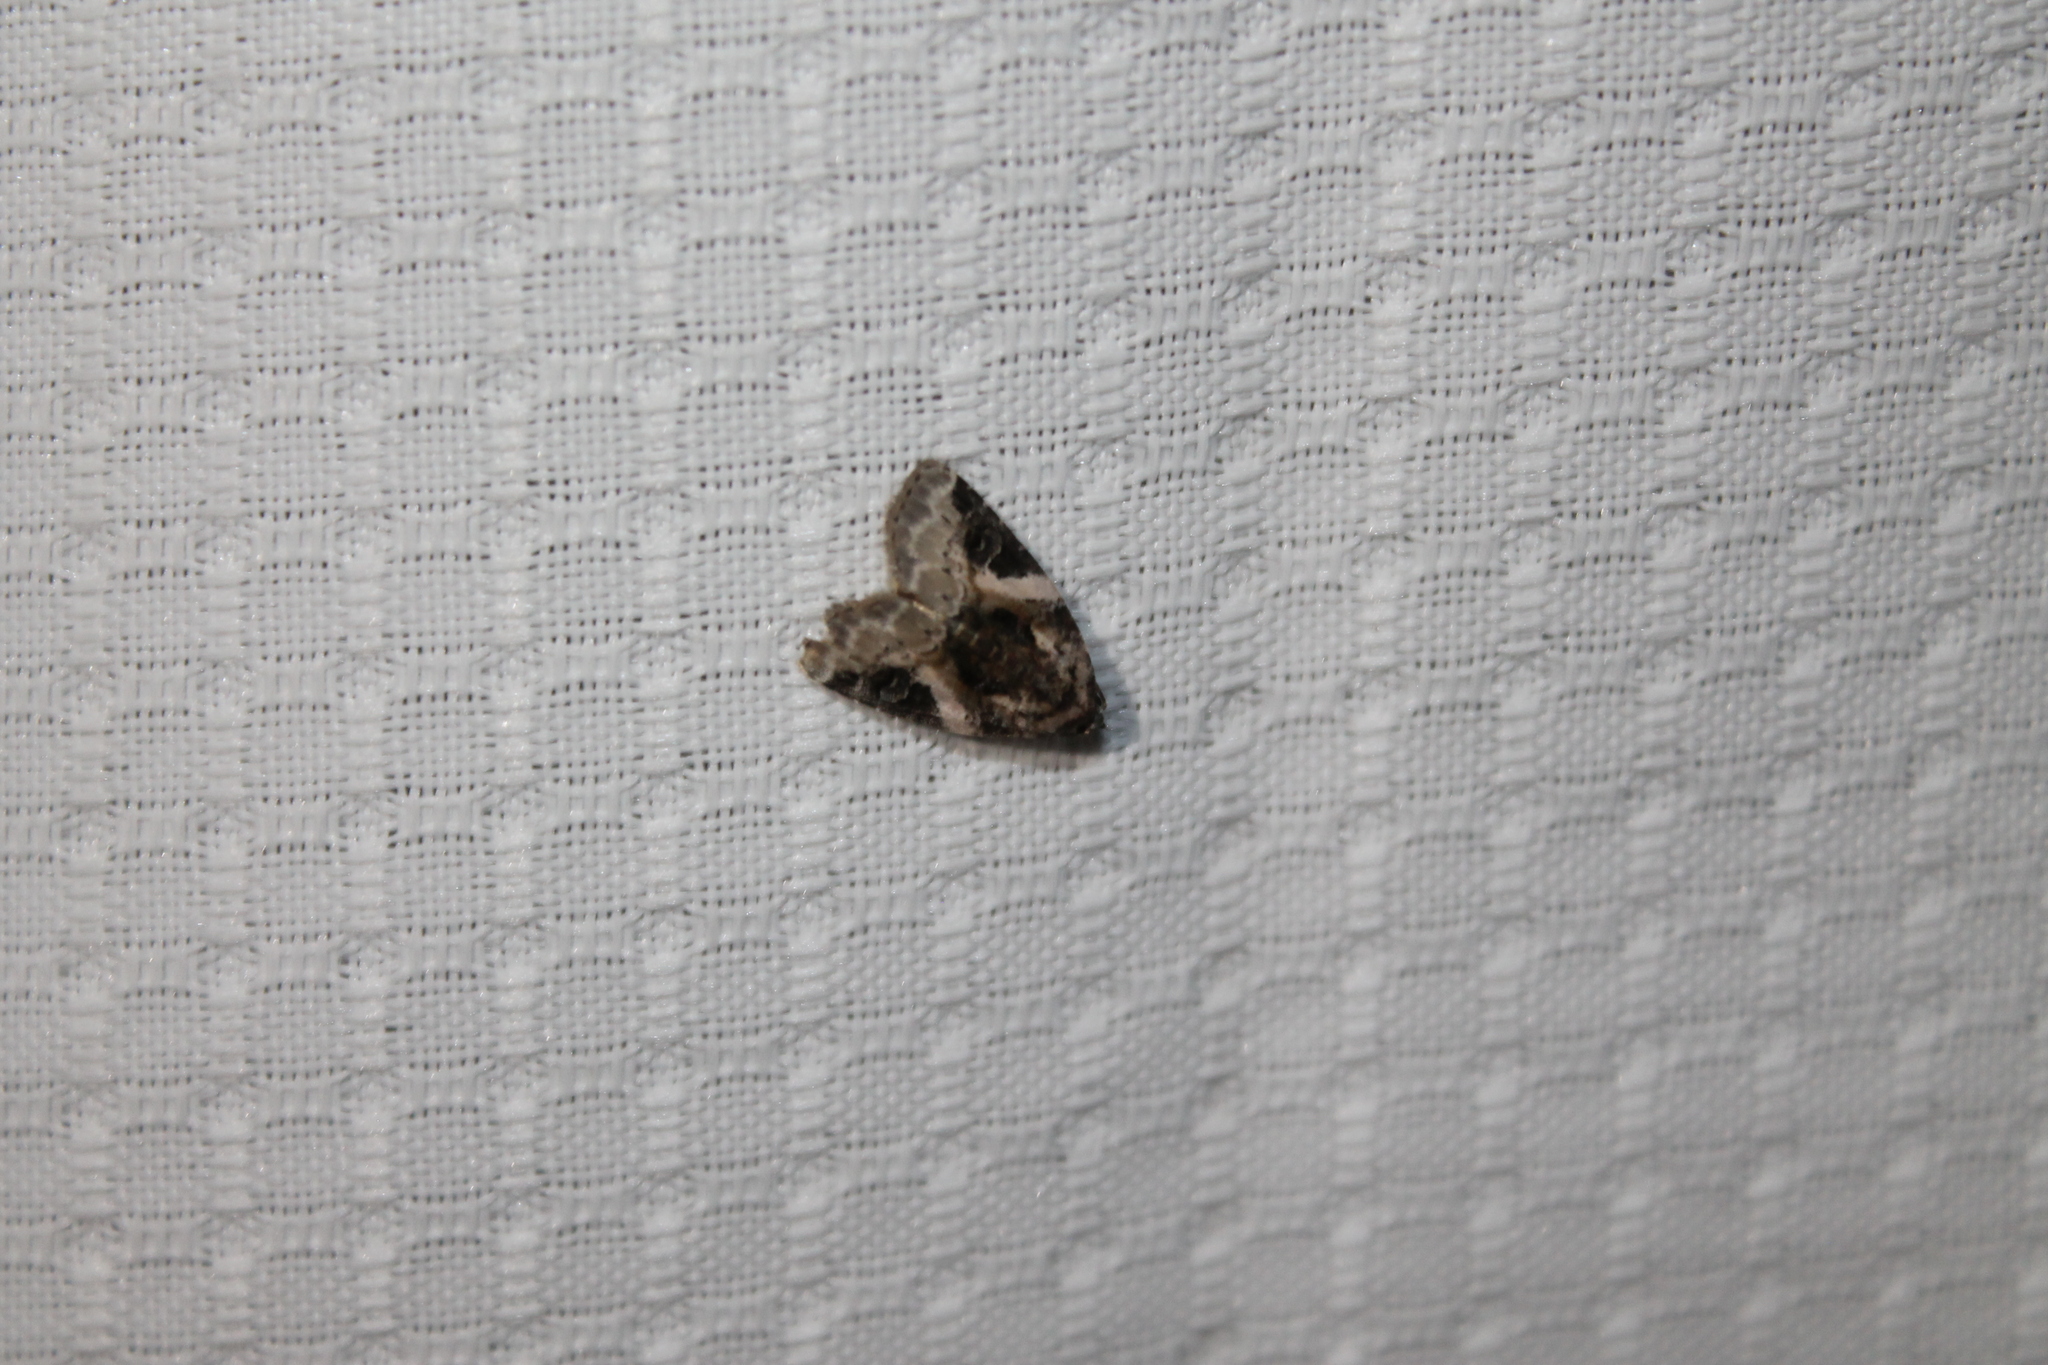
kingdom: Animalia
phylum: Arthropoda
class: Insecta
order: Lepidoptera
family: Noctuidae
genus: Pseudeustrotia
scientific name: Pseudeustrotia carneola
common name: Pink-barred lithacodia moth
